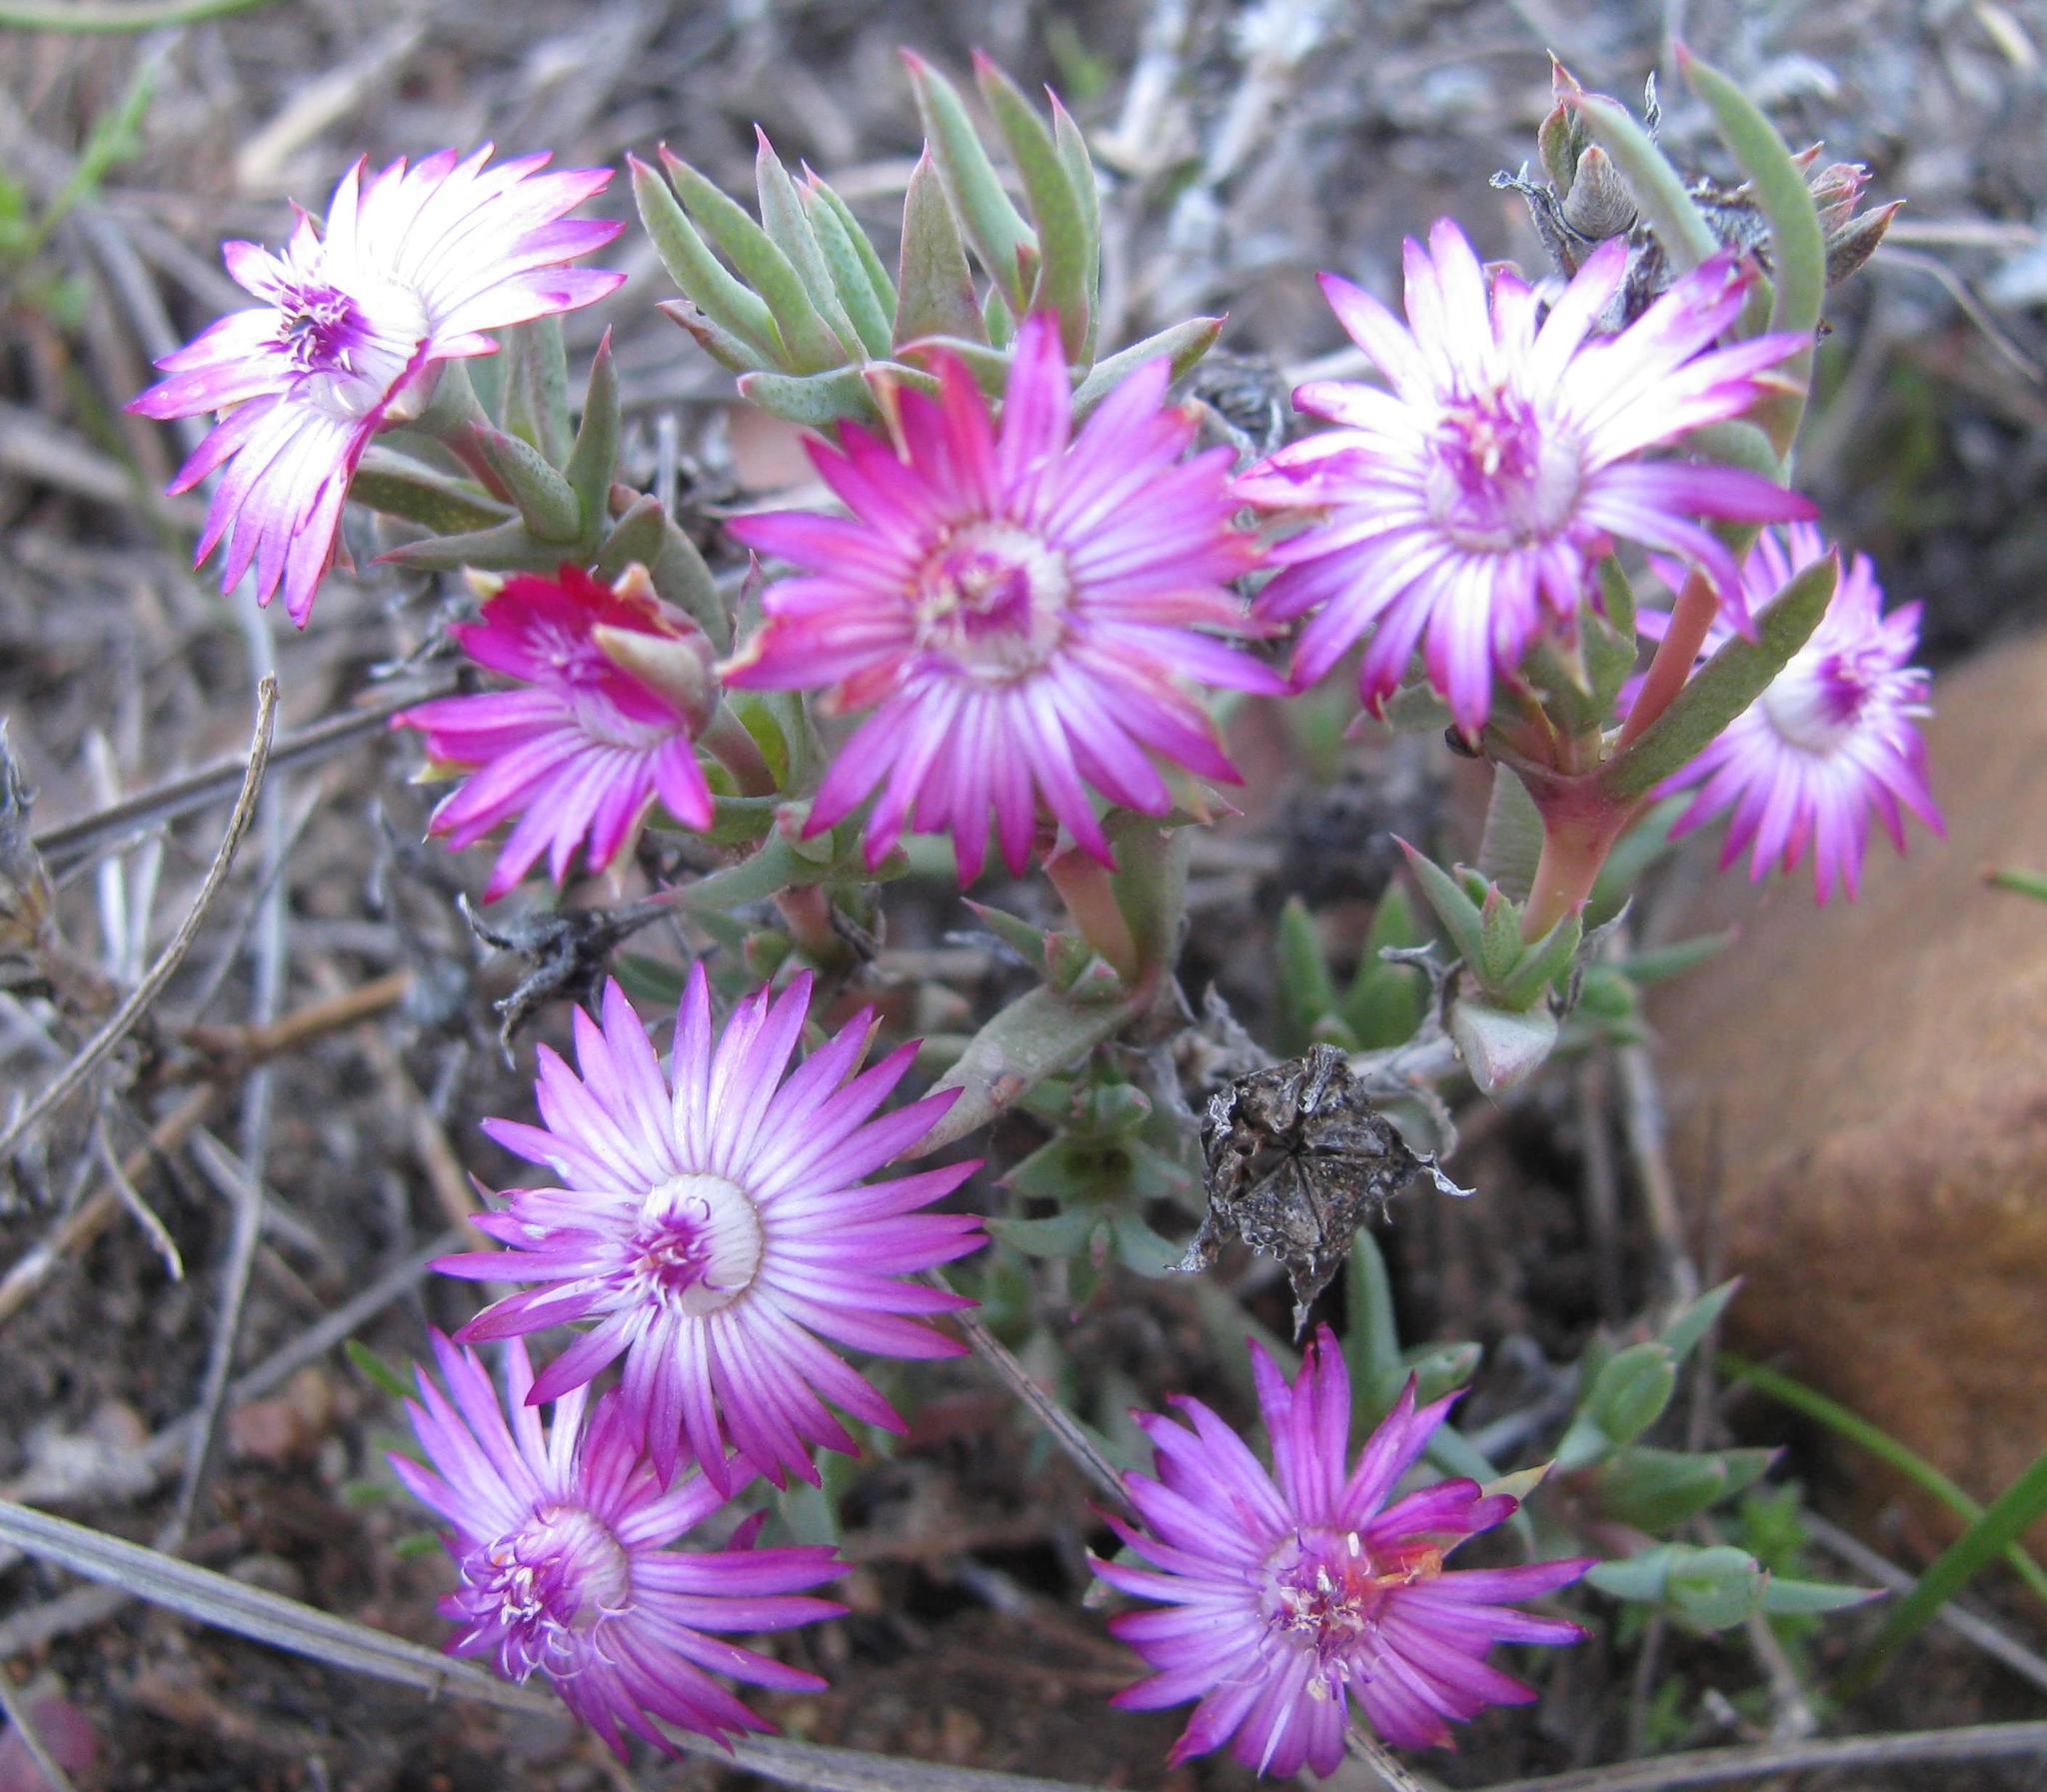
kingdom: Plantae
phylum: Tracheophyta
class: Magnoliopsida
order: Caryophyllales
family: Aizoaceae
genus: Antimima
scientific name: Antimima leipoldtii
